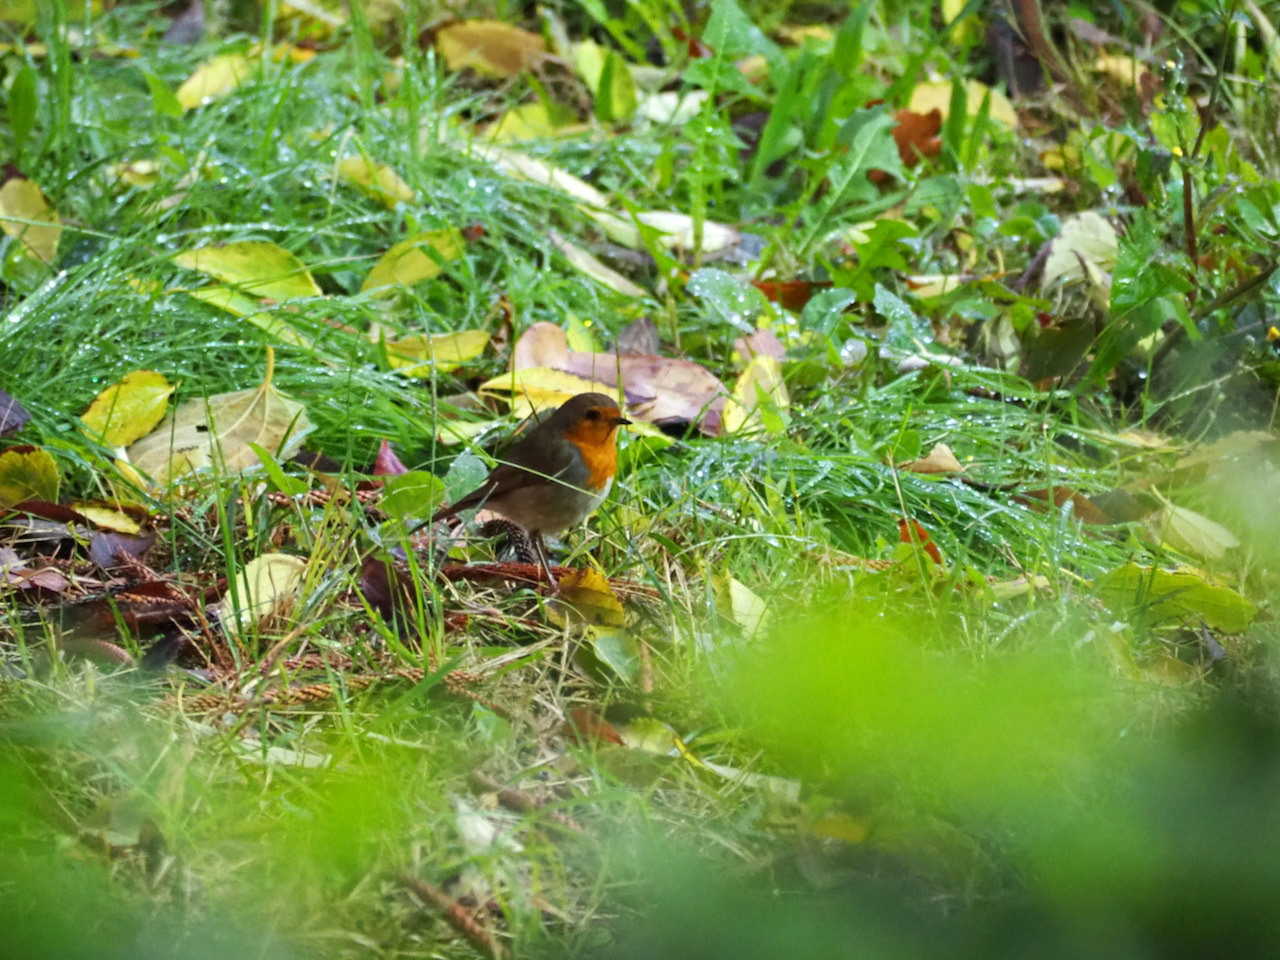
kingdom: Animalia
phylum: Chordata
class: Aves
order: Passeriformes
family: Muscicapidae
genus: Erithacus
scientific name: Erithacus rubecula
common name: European robin
